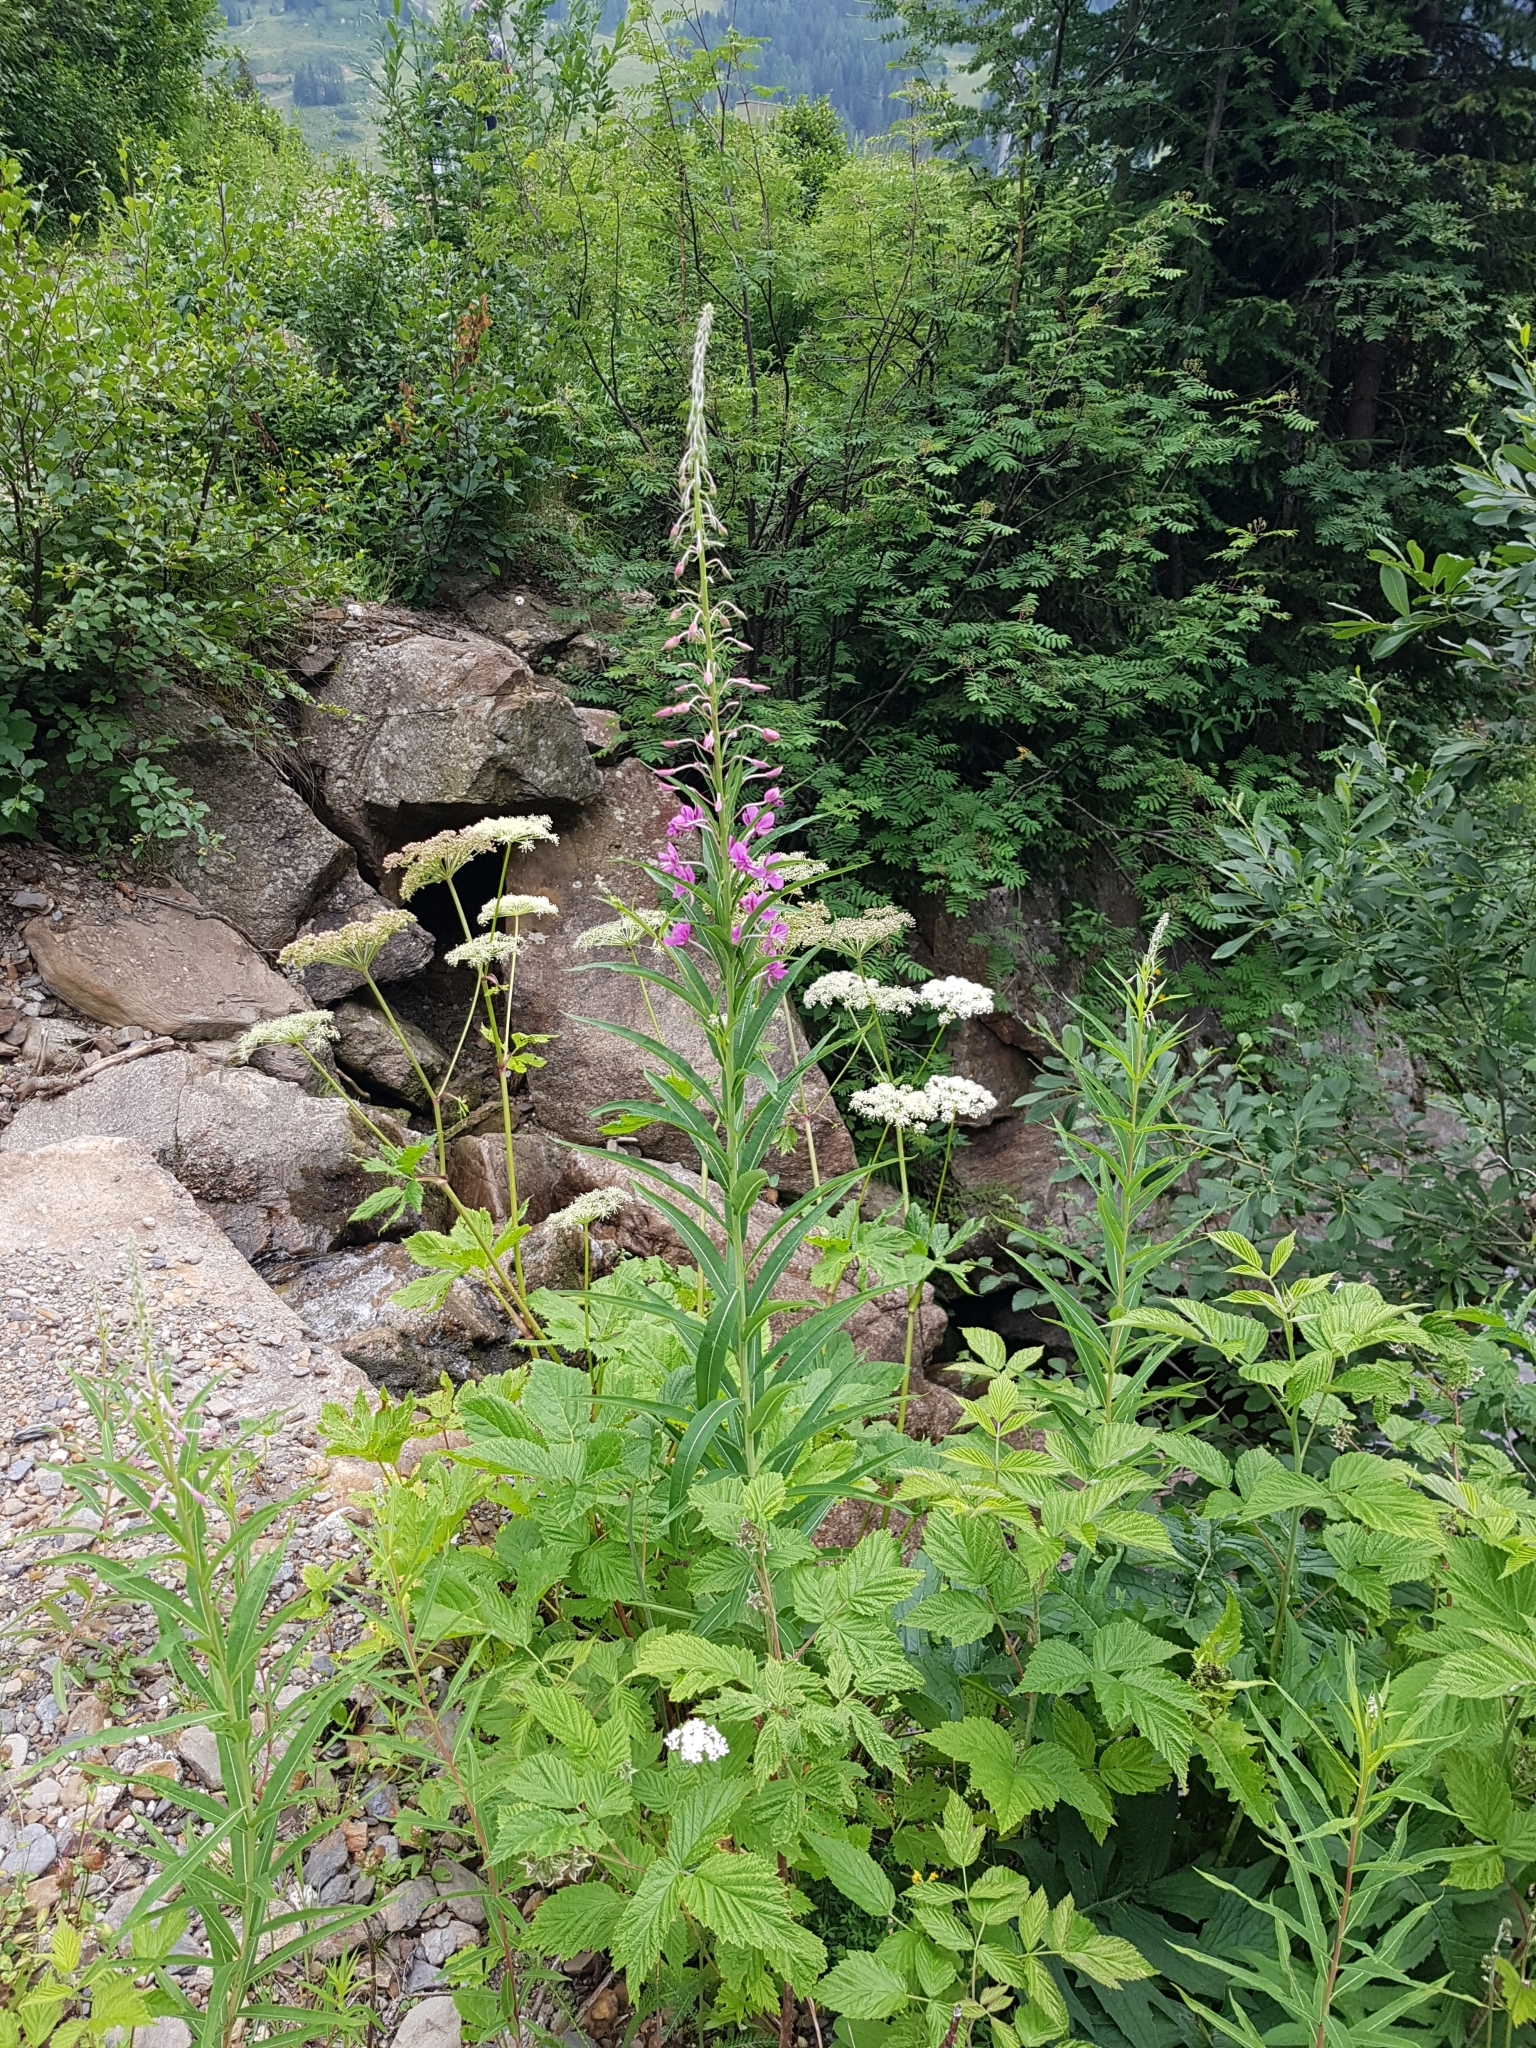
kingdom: Plantae
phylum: Tracheophyta
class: Magnoliopsida
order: Myrtales
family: Onagraceae
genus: Chamaenerion
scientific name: Chamaenerion angustifolium
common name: Fireweed
